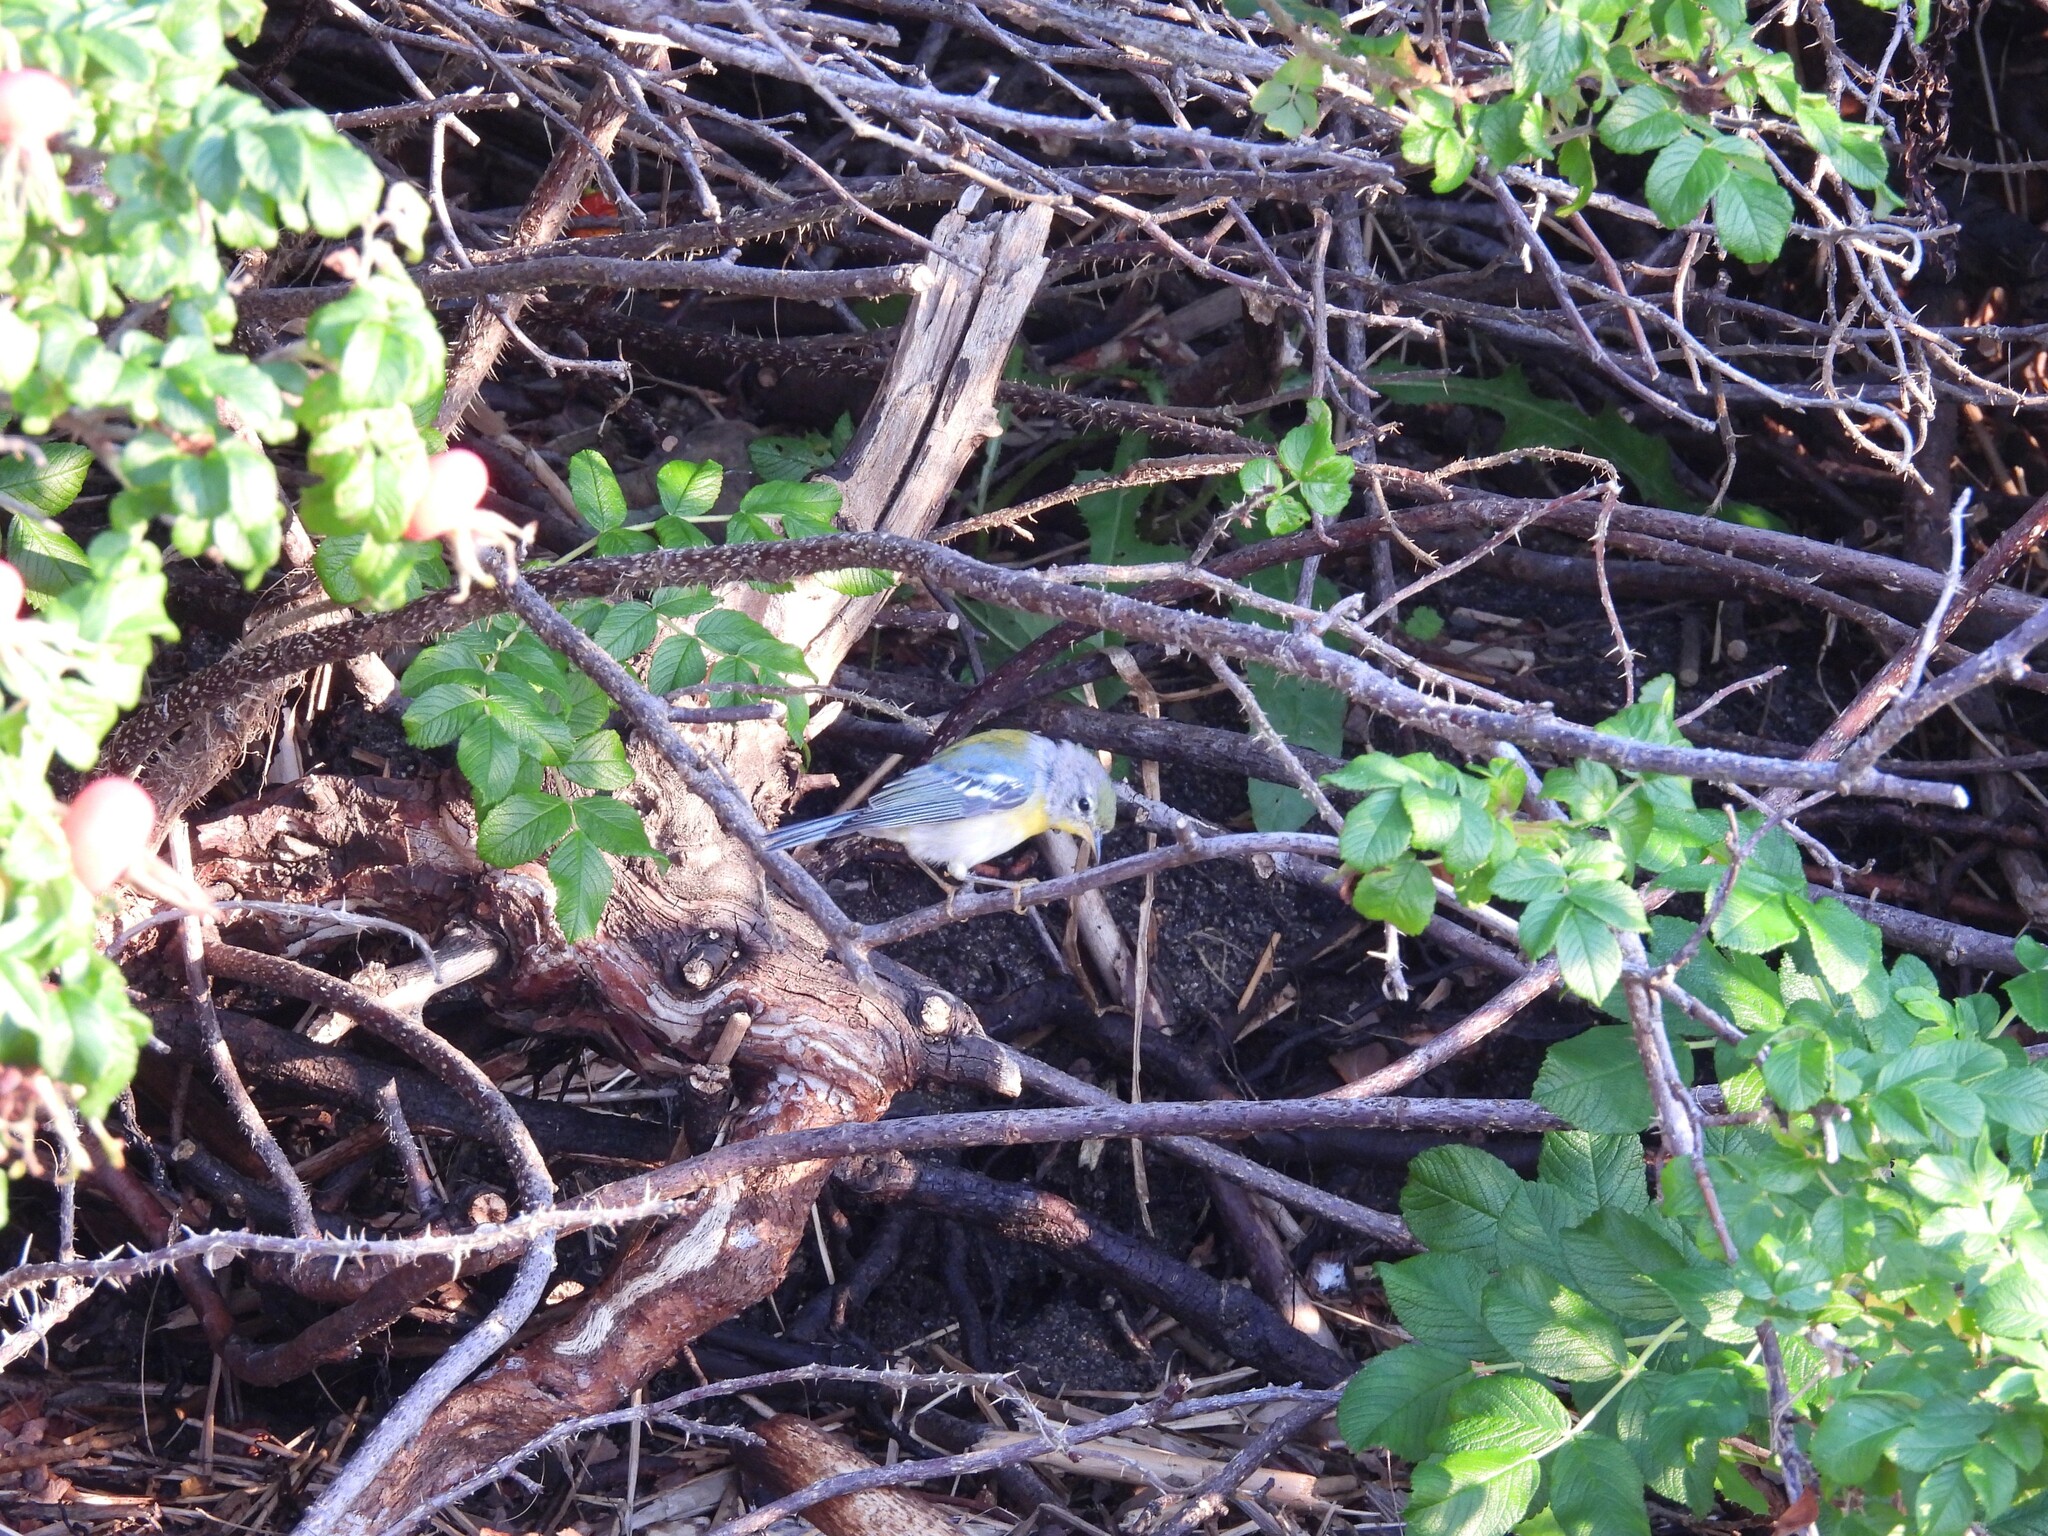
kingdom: Animalia
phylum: Chordata
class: Aves
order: Passeriformes
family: Parulidae
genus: Setophaga
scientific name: Setophaga americana
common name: Northern parula
